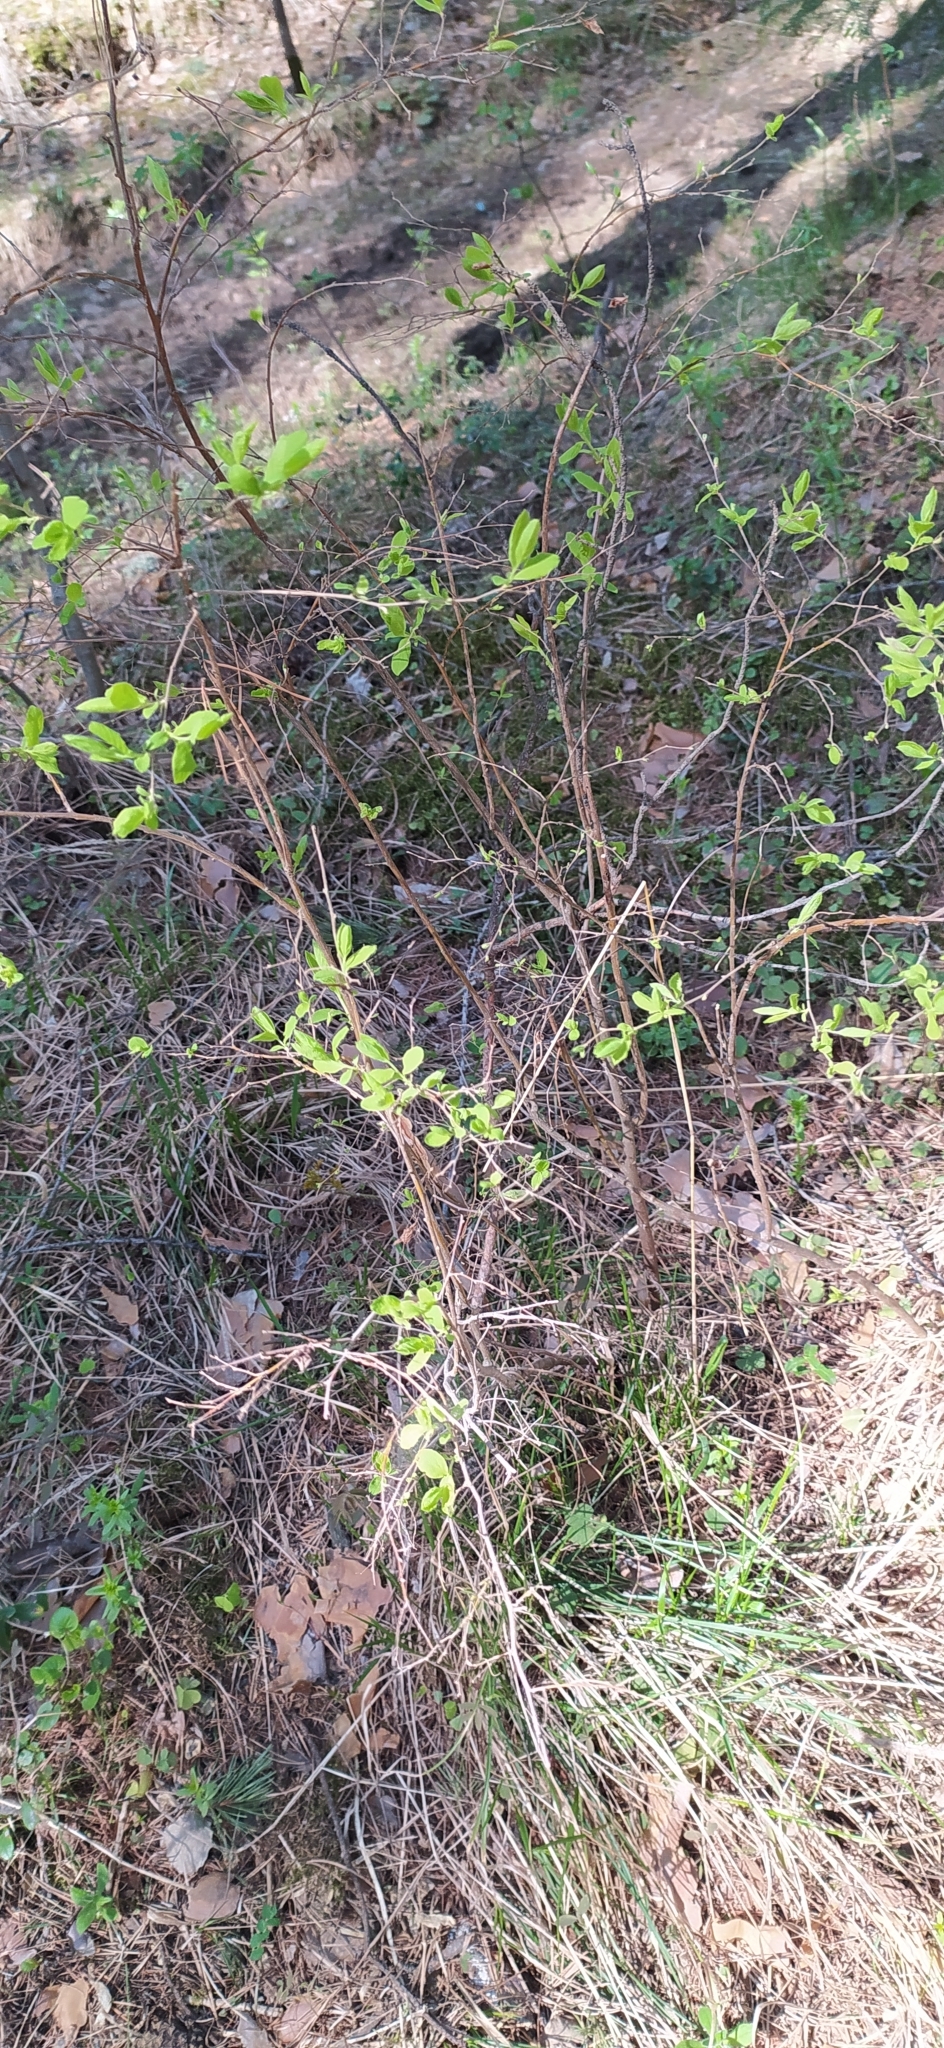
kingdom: Plantae
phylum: Tracheophyta
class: Magnoliopsida
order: Rosales
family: Rosaceae
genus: Spiraea
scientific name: Spiraea media
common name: Russian spiraea
